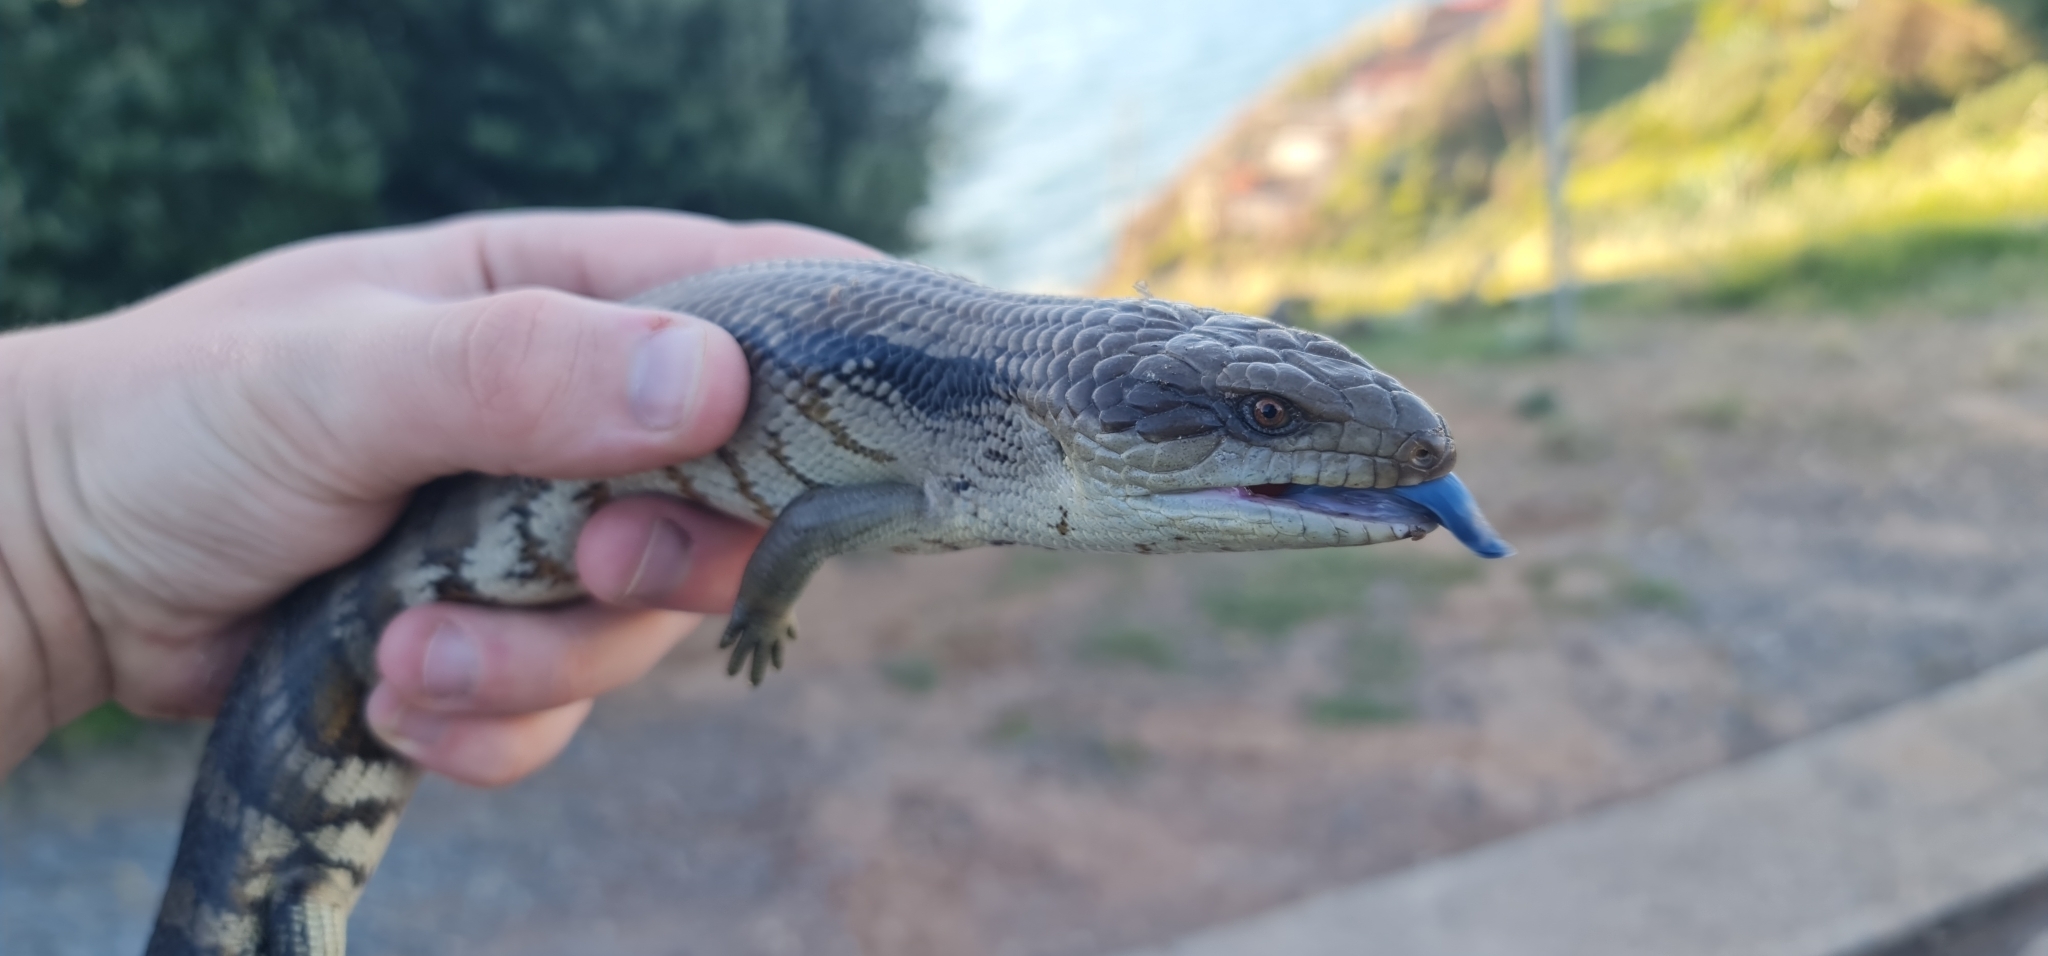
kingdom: Animalia
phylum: Chordata
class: Squamata
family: Scincidae
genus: Tiliqua
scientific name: Tiliqua scincoides
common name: Common bluetongue
